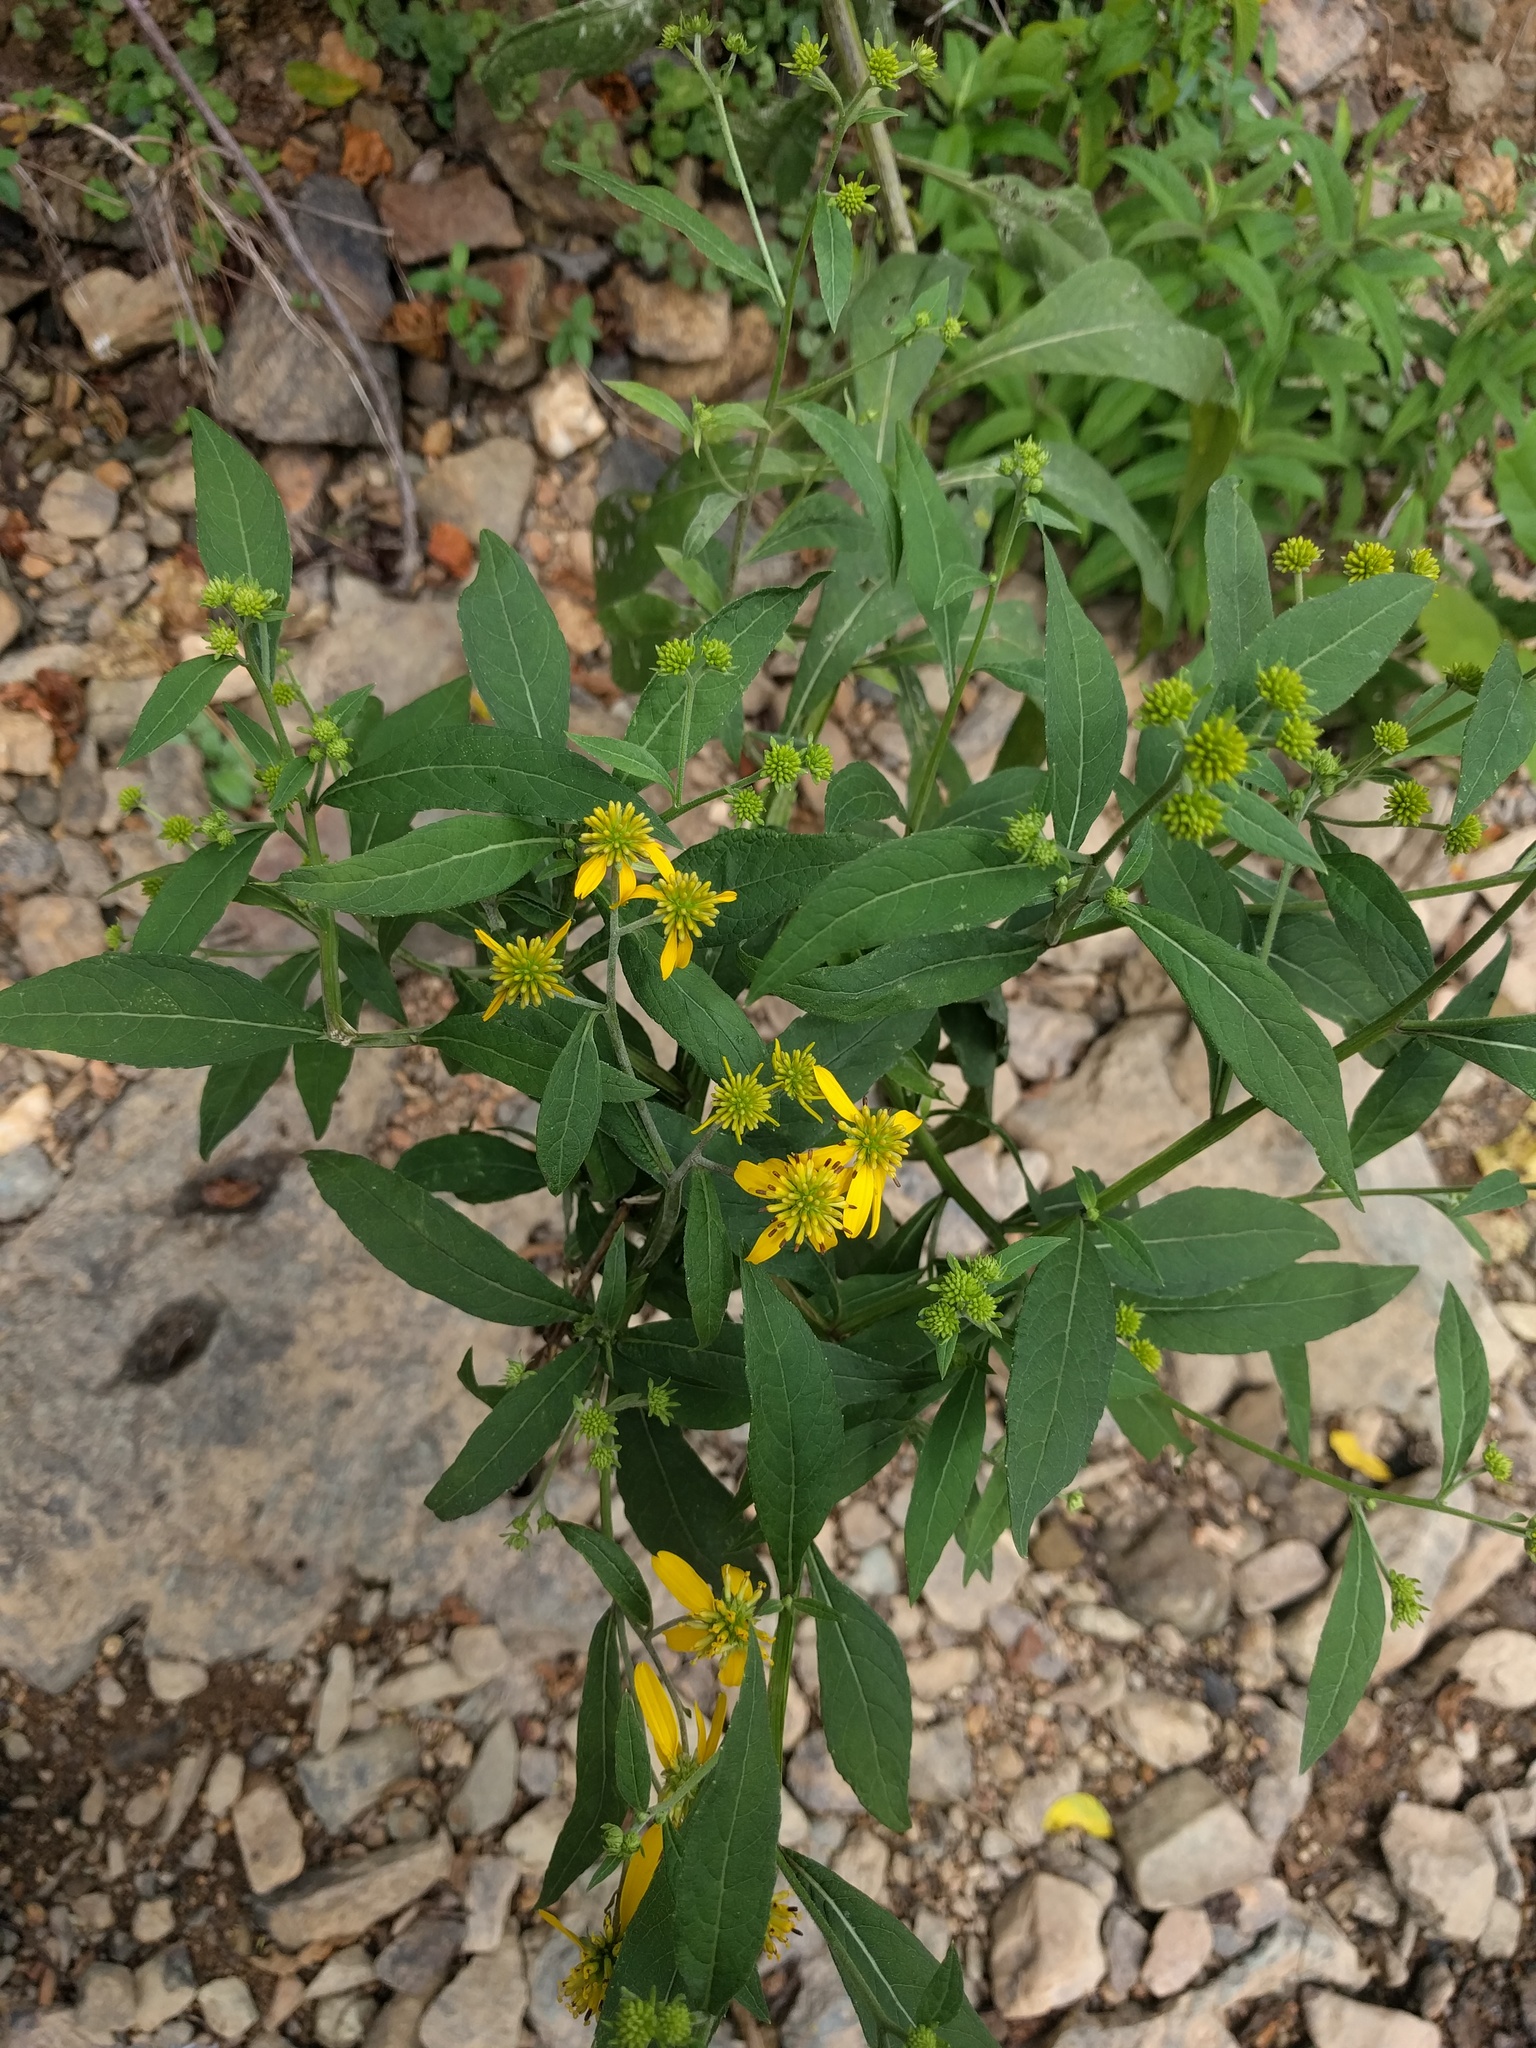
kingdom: Plantae
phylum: Tracheophyta
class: Magnoliopsida
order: Asterales
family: Asteraceae
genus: Verbesina
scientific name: Verbesina alternifolia
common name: Wingstem
